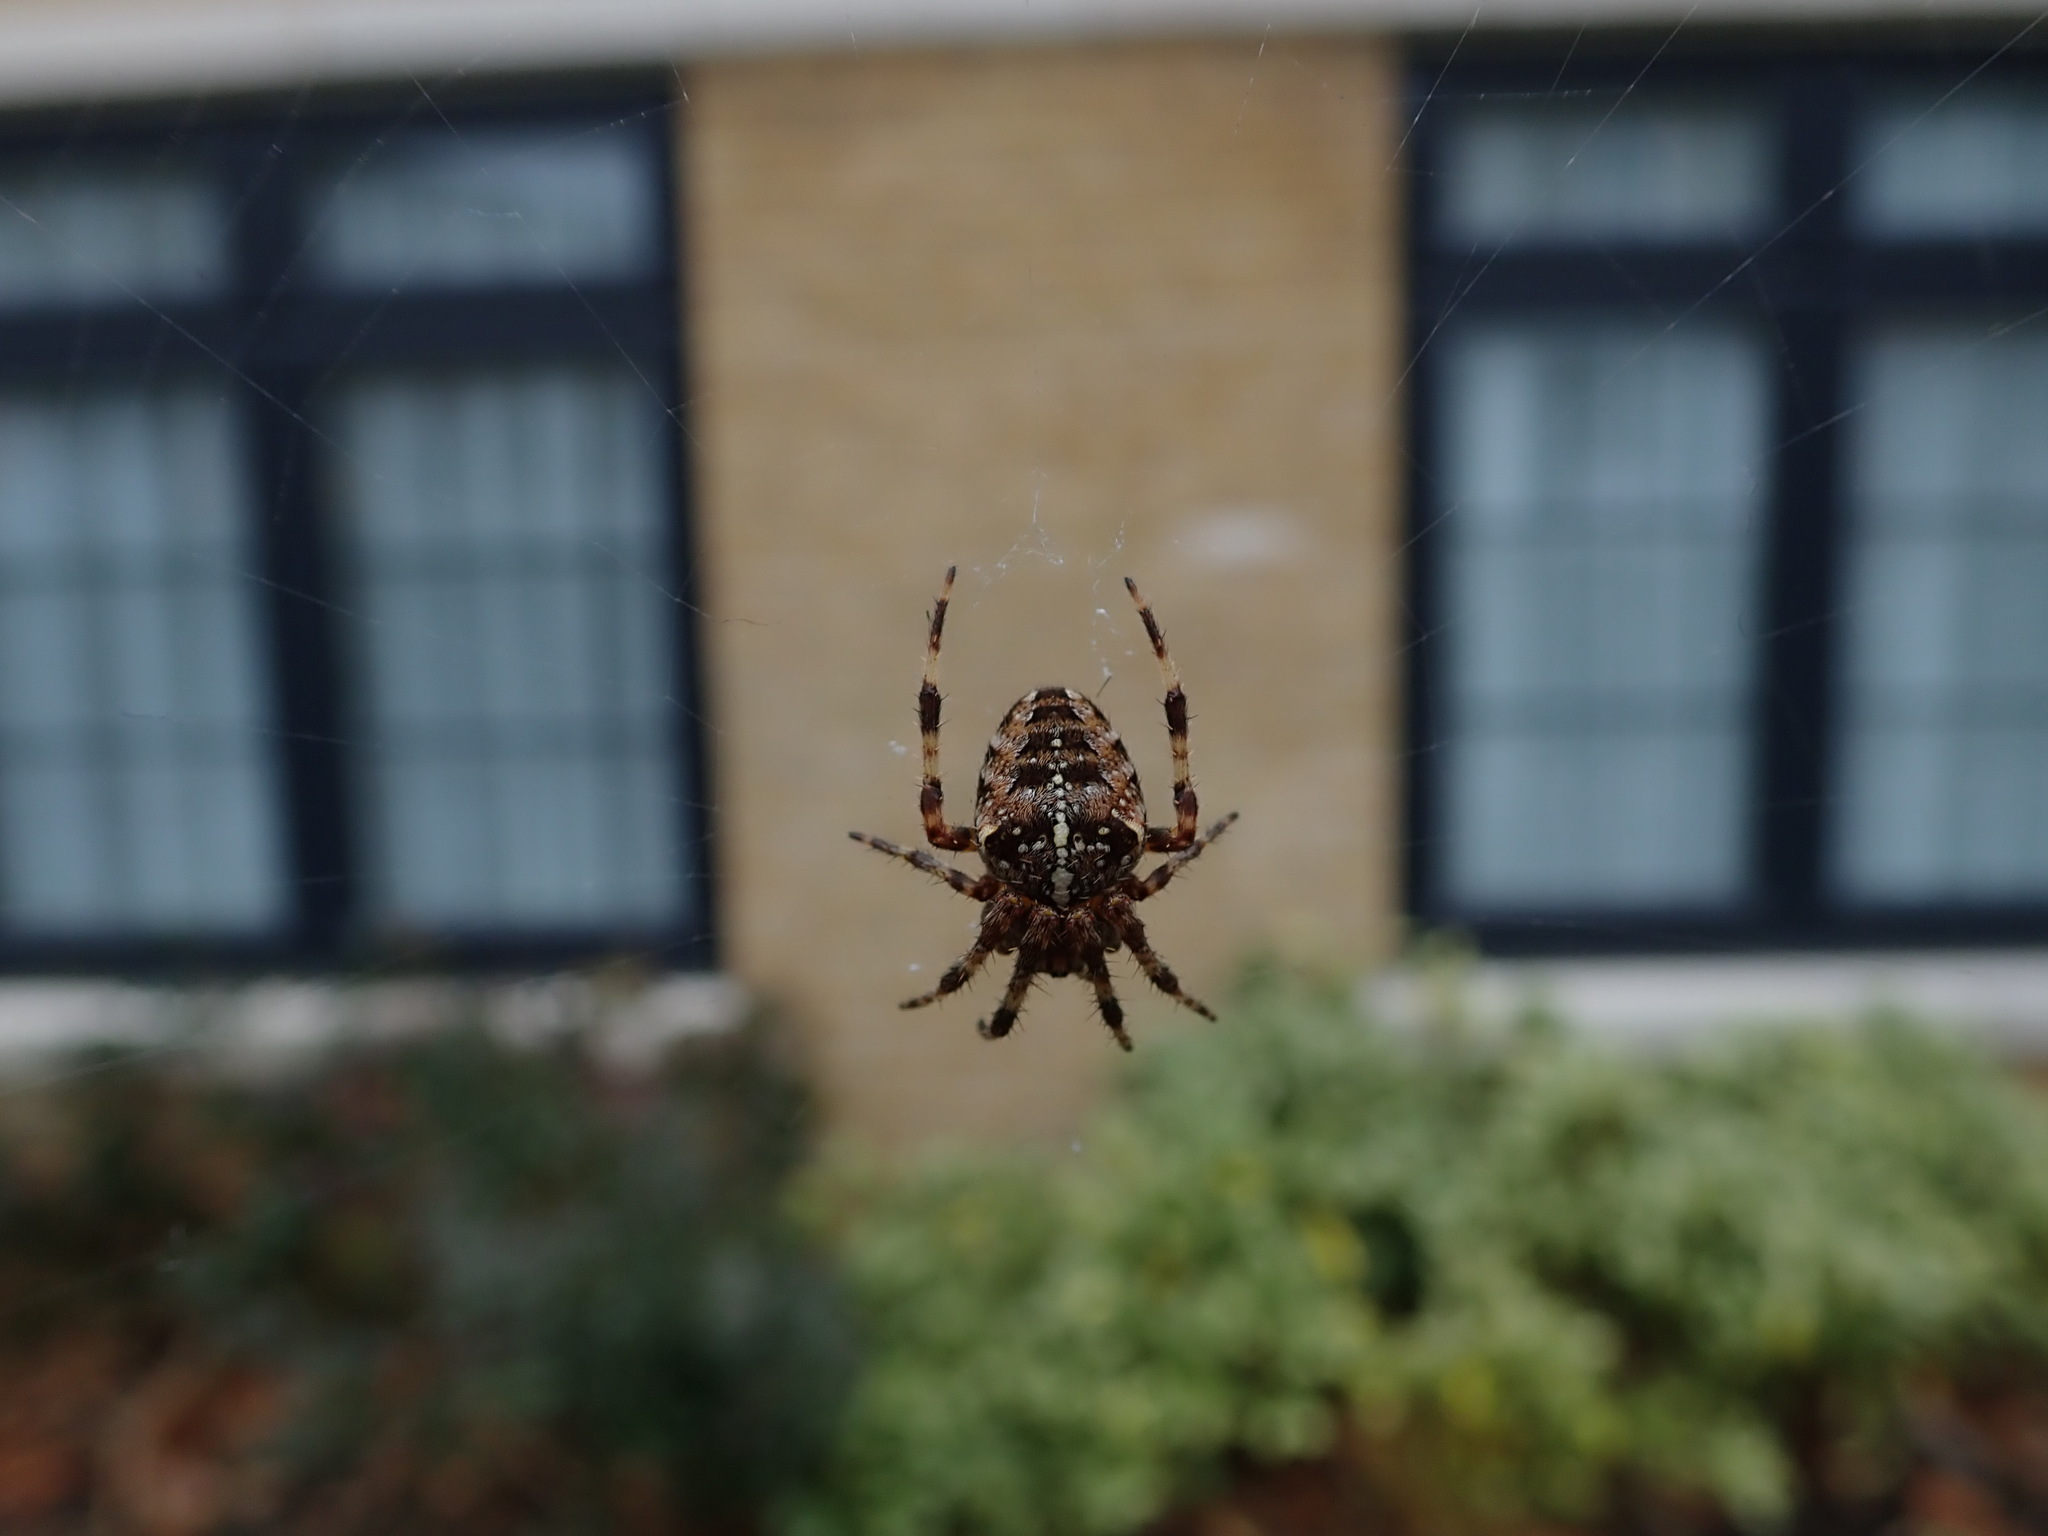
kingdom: Animalia
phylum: Arthropoda
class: Arachnida
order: Araneae
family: Araneidae
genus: Araneus
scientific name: Araneus diadematus
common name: Cross orbweaver
